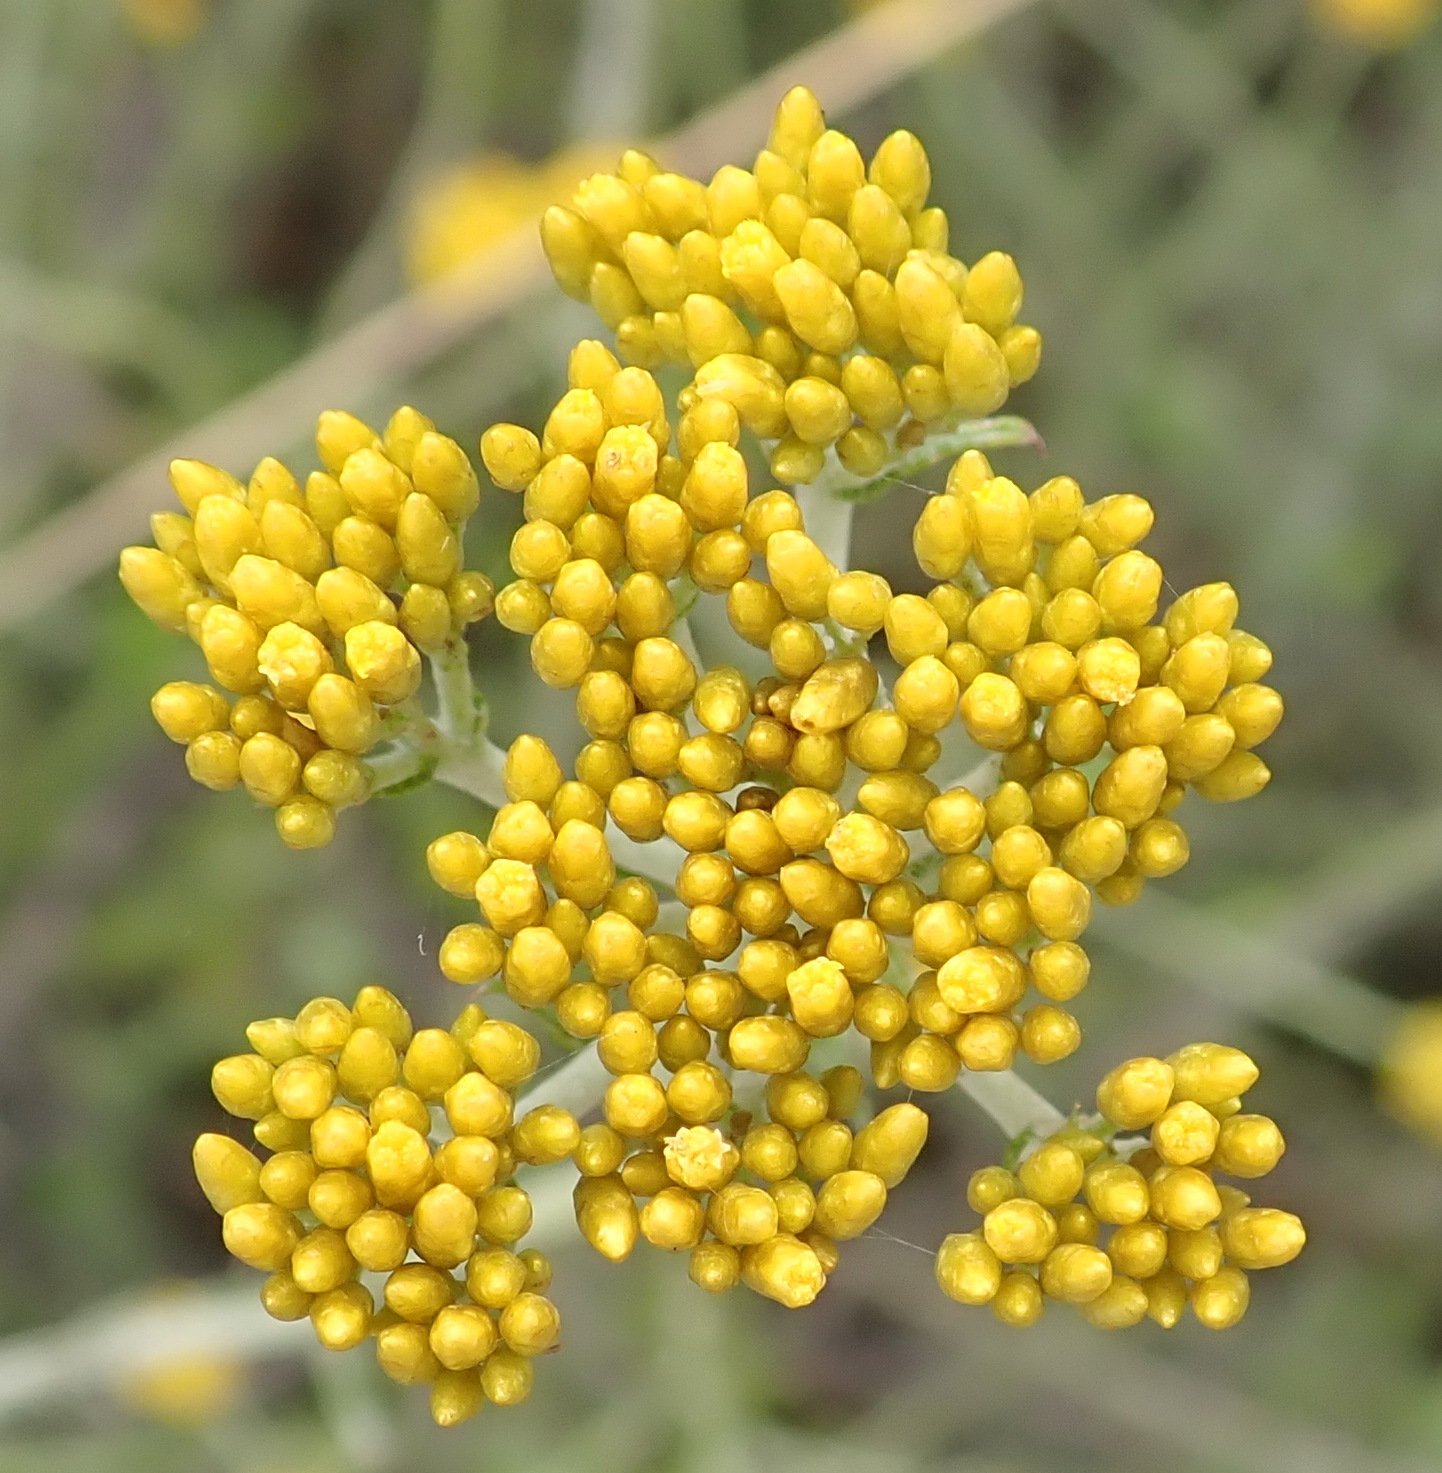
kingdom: Plantae
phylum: Tracheophyta
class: Magnoliopsida
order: Asterales
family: Asteraceae
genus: Helichrysum
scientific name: Helichrysum cymosum
